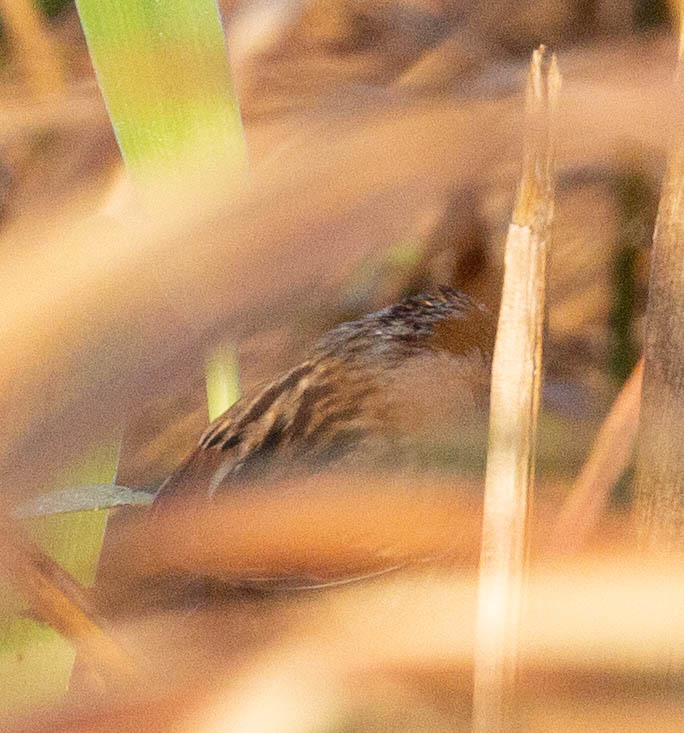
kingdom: Animalia
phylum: Chordata
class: Aves
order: Passeriformes
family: Passerellidae
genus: Melospiza
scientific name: Melospiza georgiana
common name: Swamp sparrow
